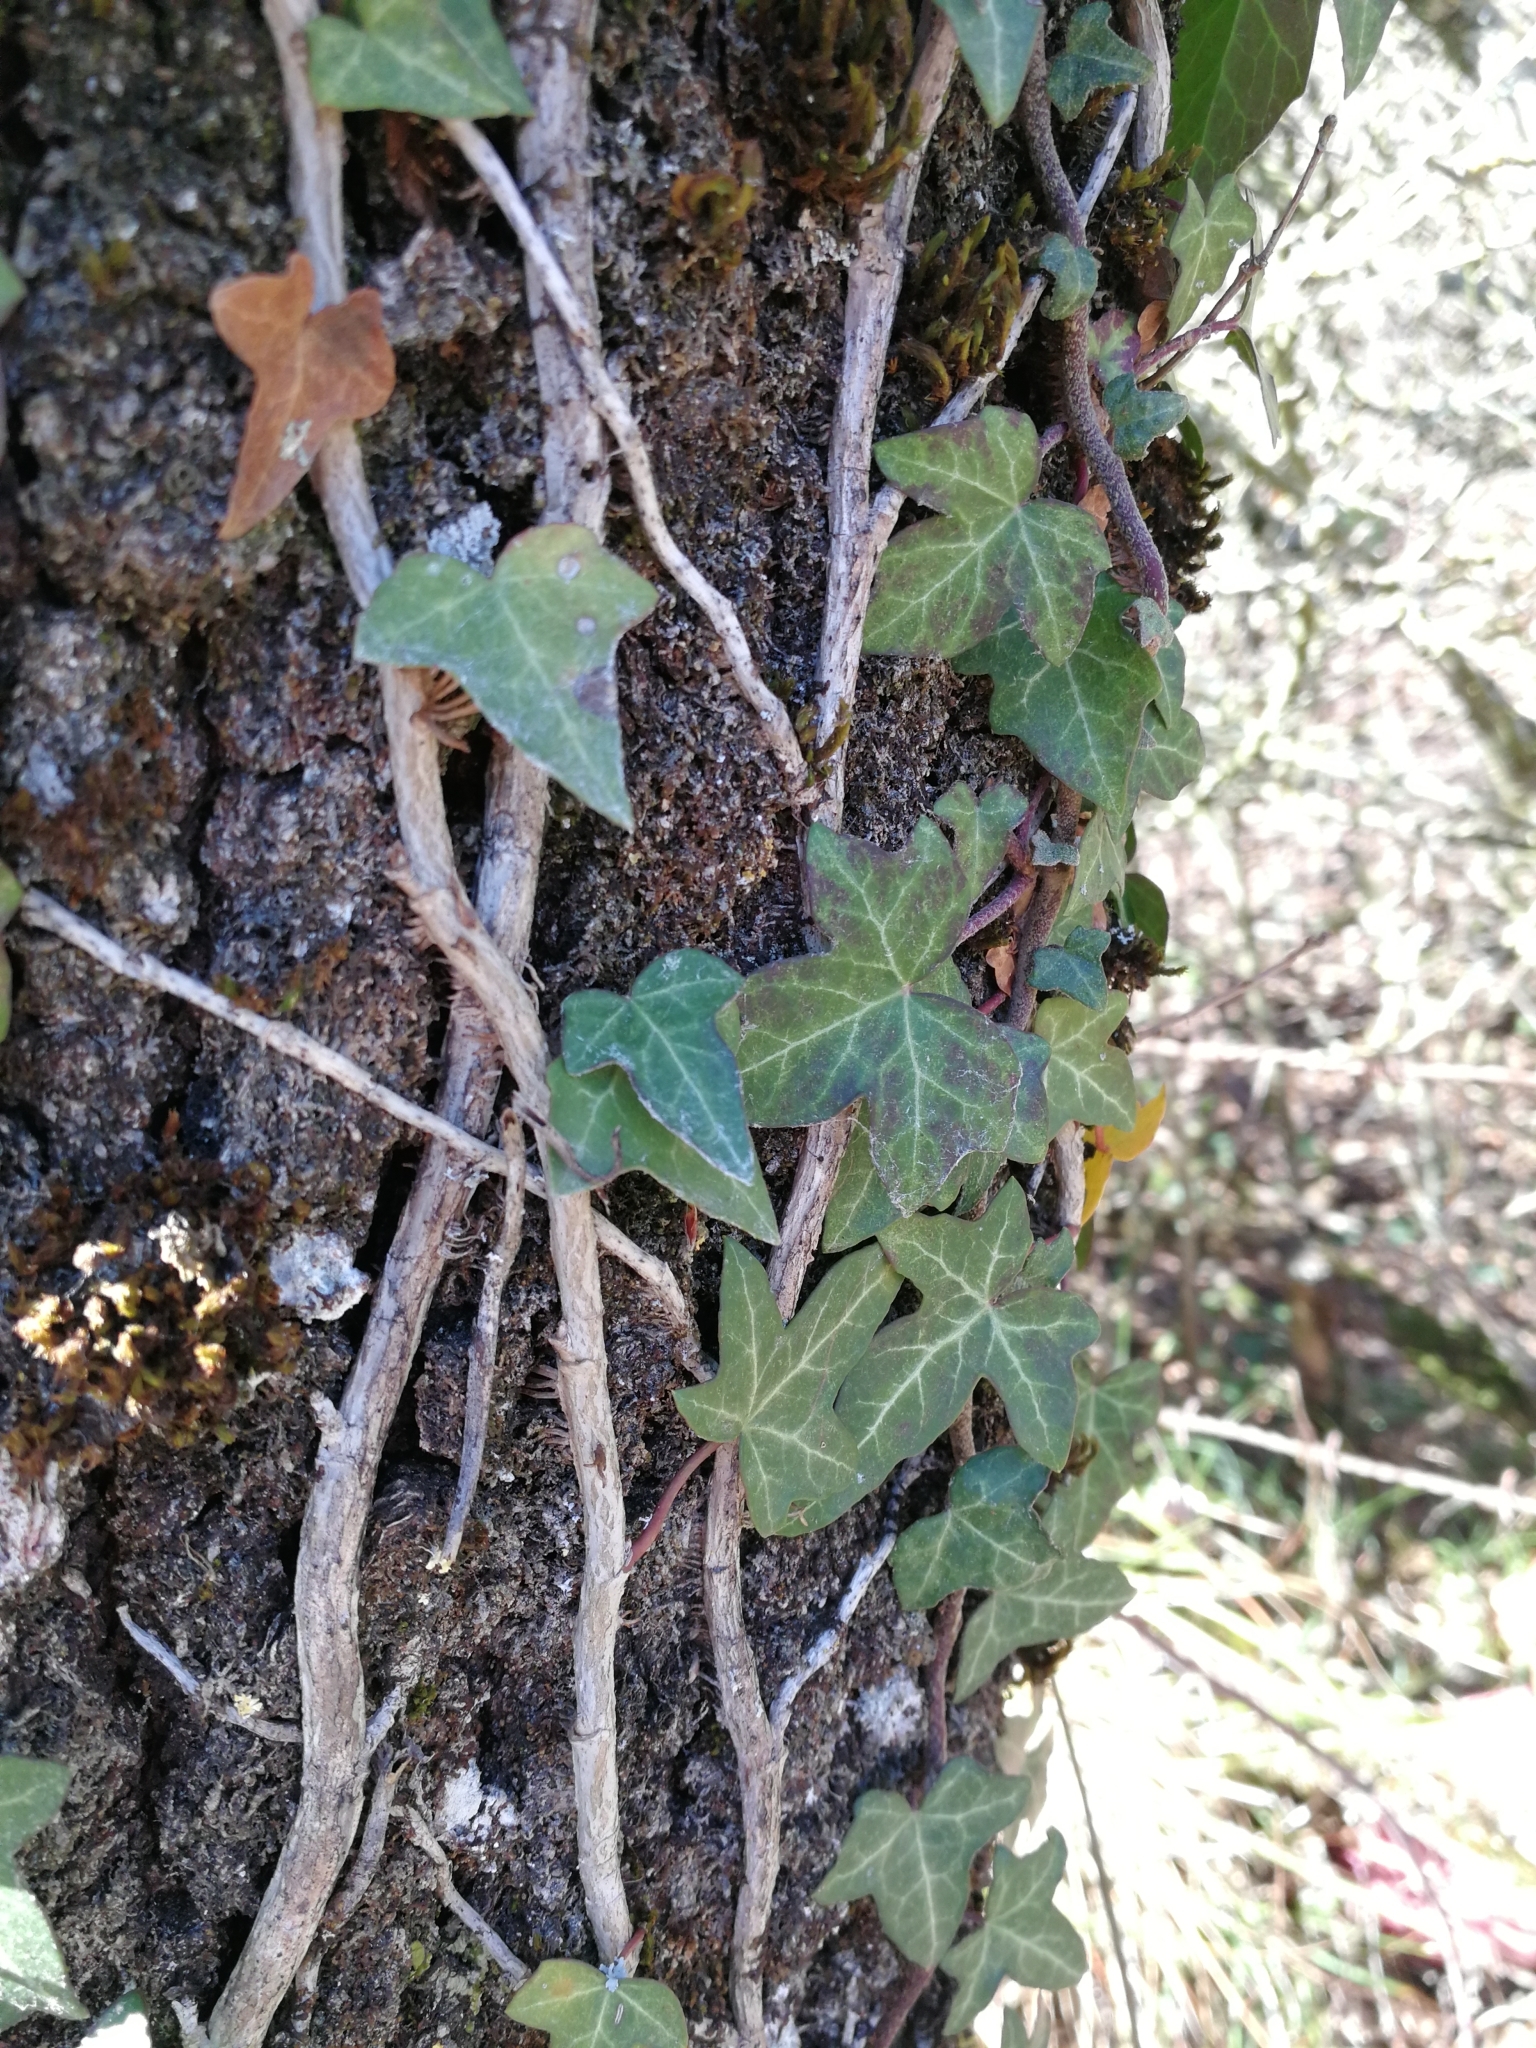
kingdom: Plantae
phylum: Tracheophyta
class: Magnoliopsida
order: Apiales
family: Araliaceae
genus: Hedera
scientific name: Hedera helix
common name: Ivy
